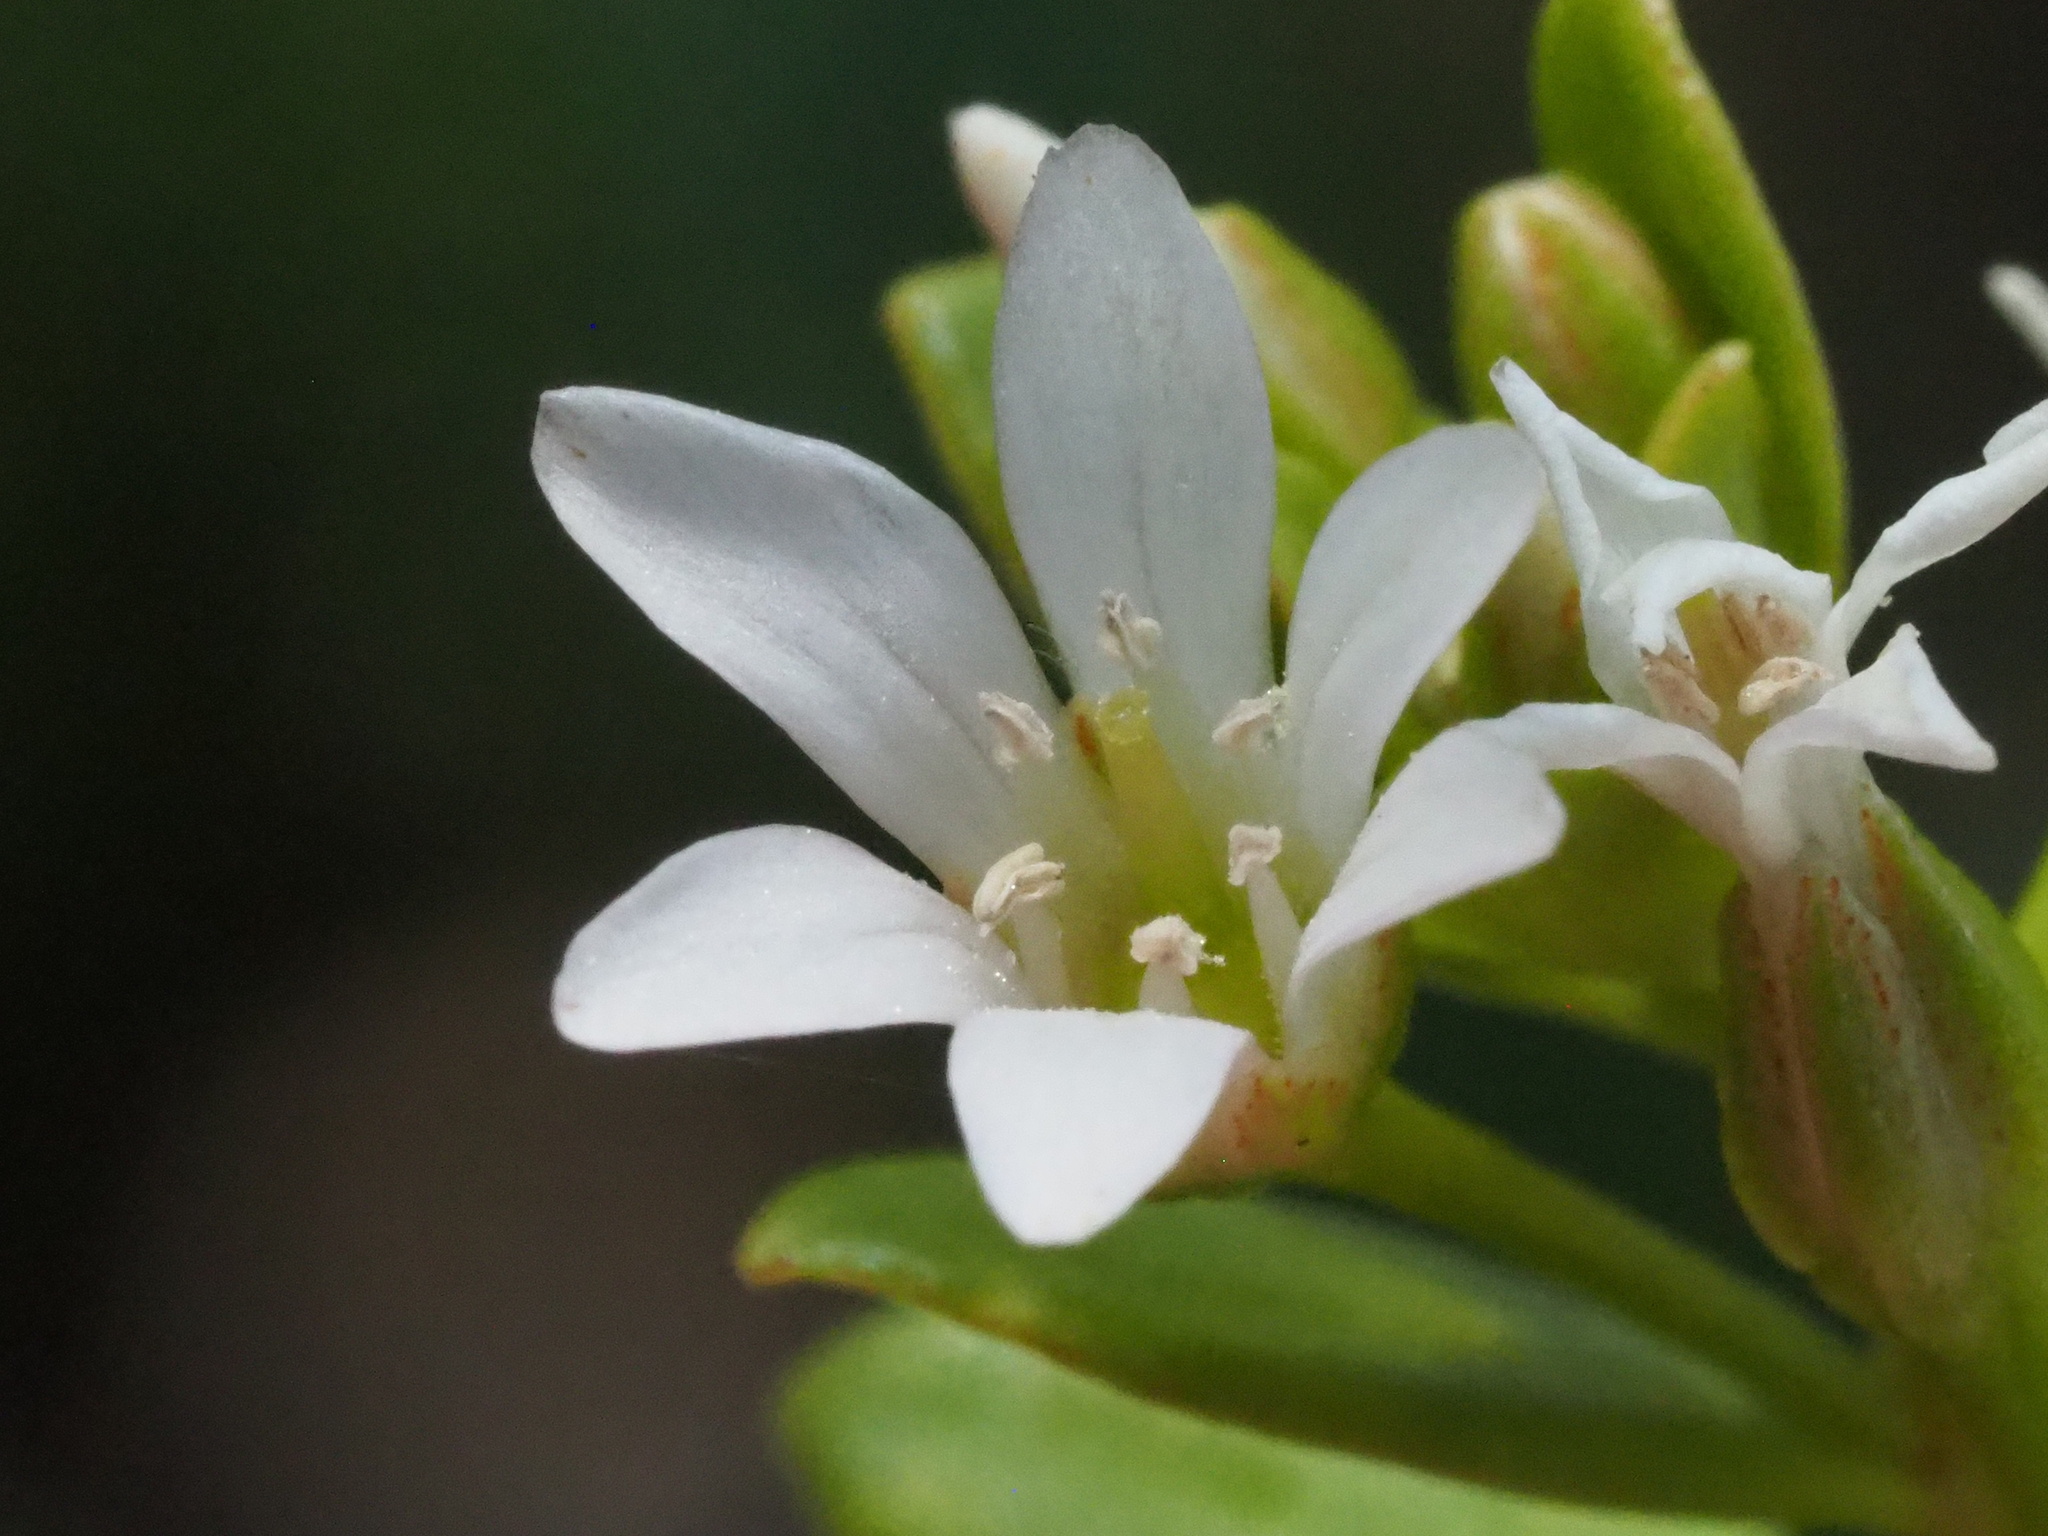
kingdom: Plantae
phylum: Tracheophyta
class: Magnoliopsida
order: Ericales
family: Primulaceae
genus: Lysimachia
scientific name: Lysimachia mauritiana
